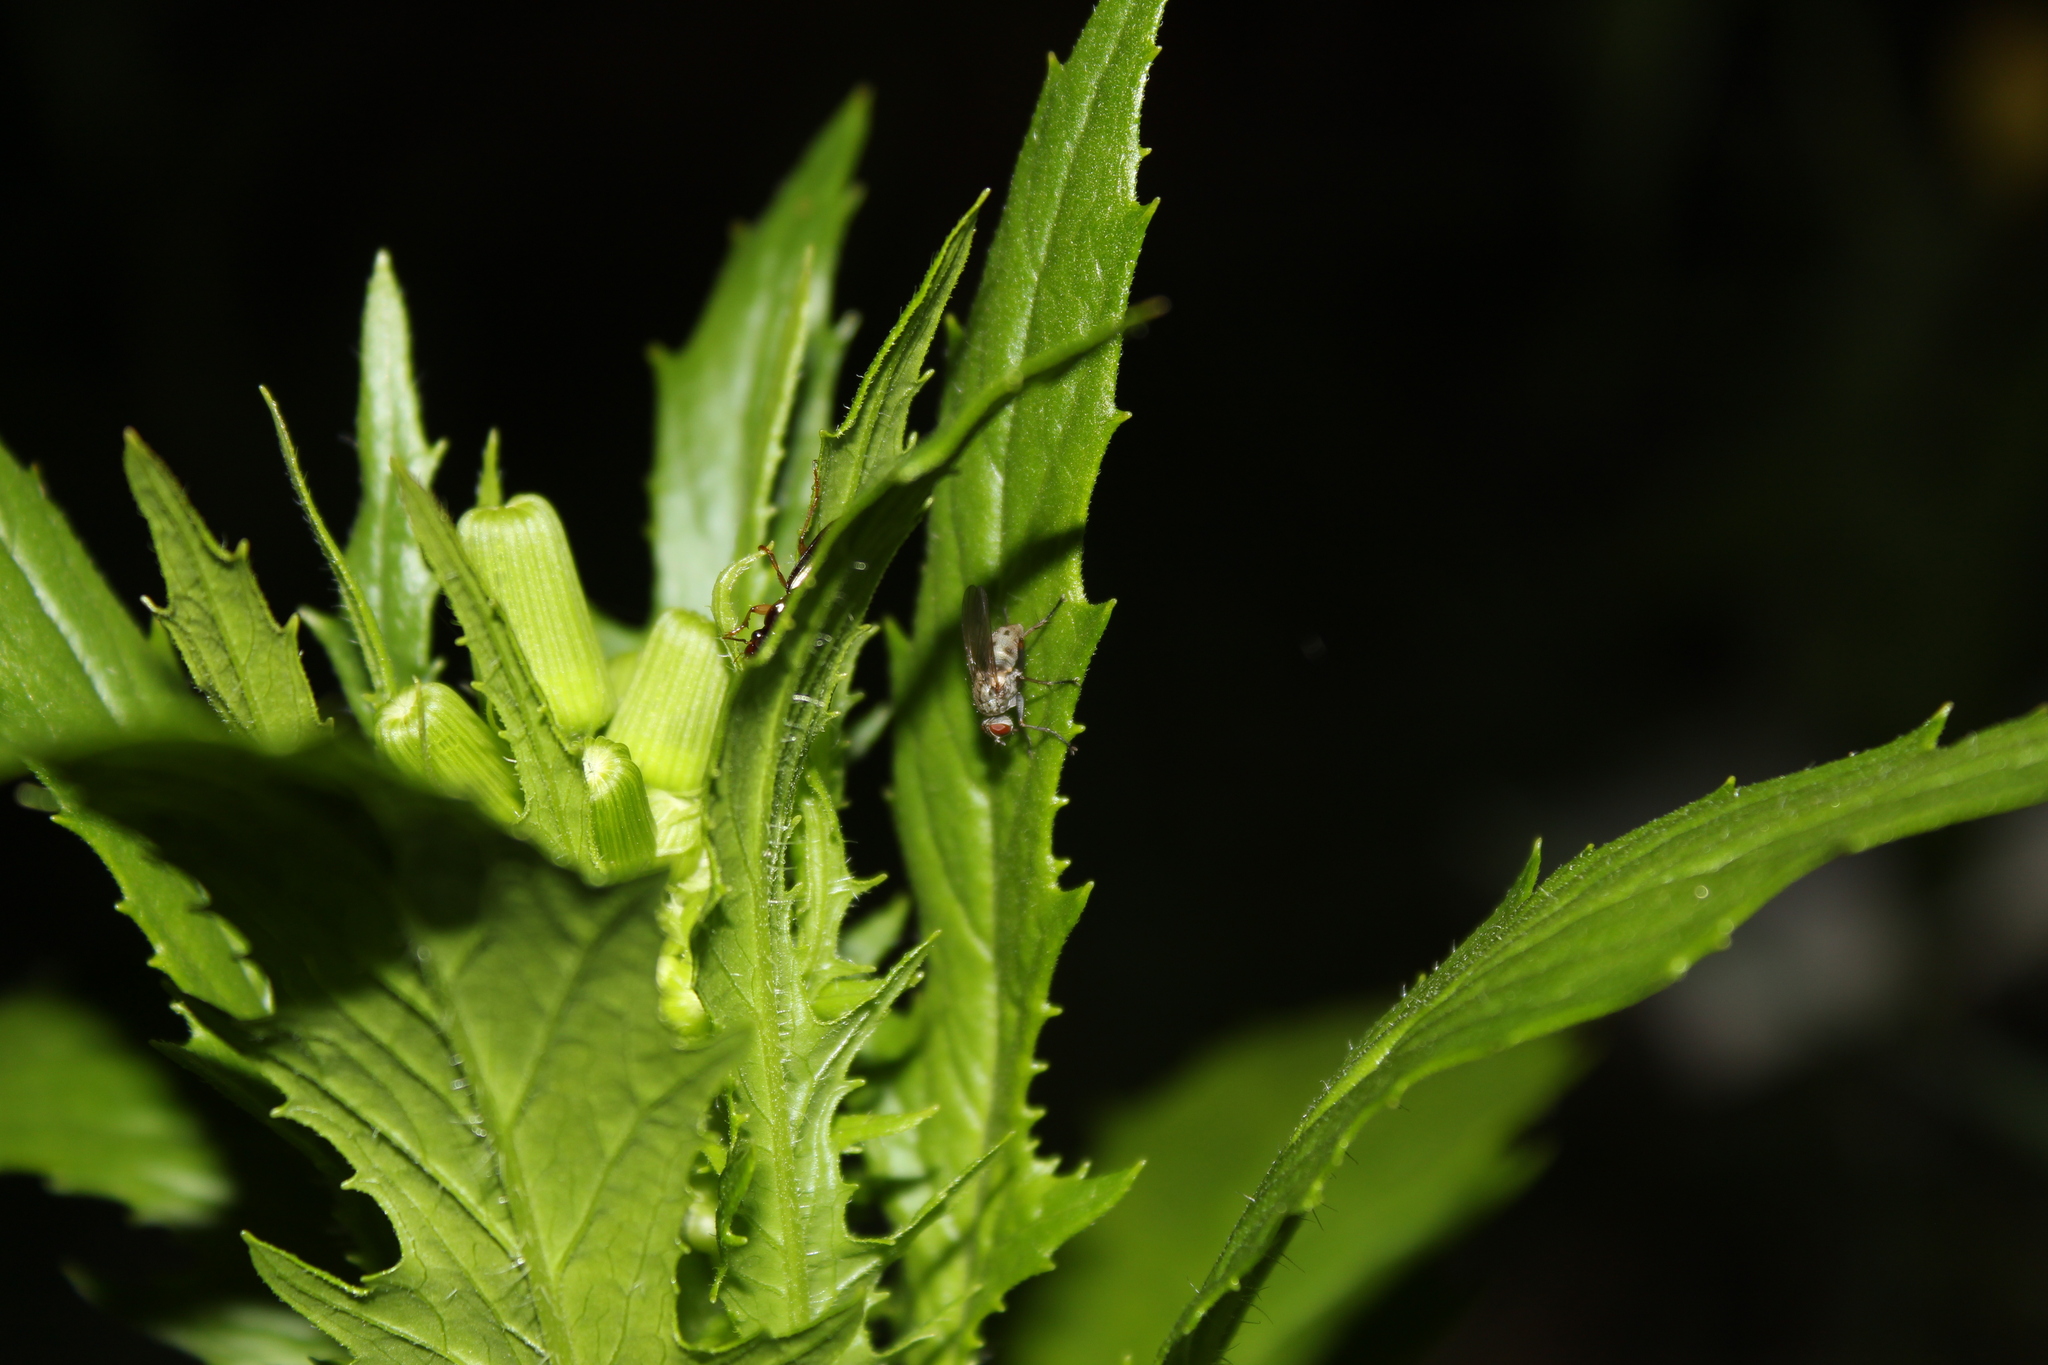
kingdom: Plantae
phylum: Tracheophyta
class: Magnoliopsida
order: Asterales
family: Asteraceae
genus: Erechtites
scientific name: Erechtites hieraciifolius
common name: American burnweed
